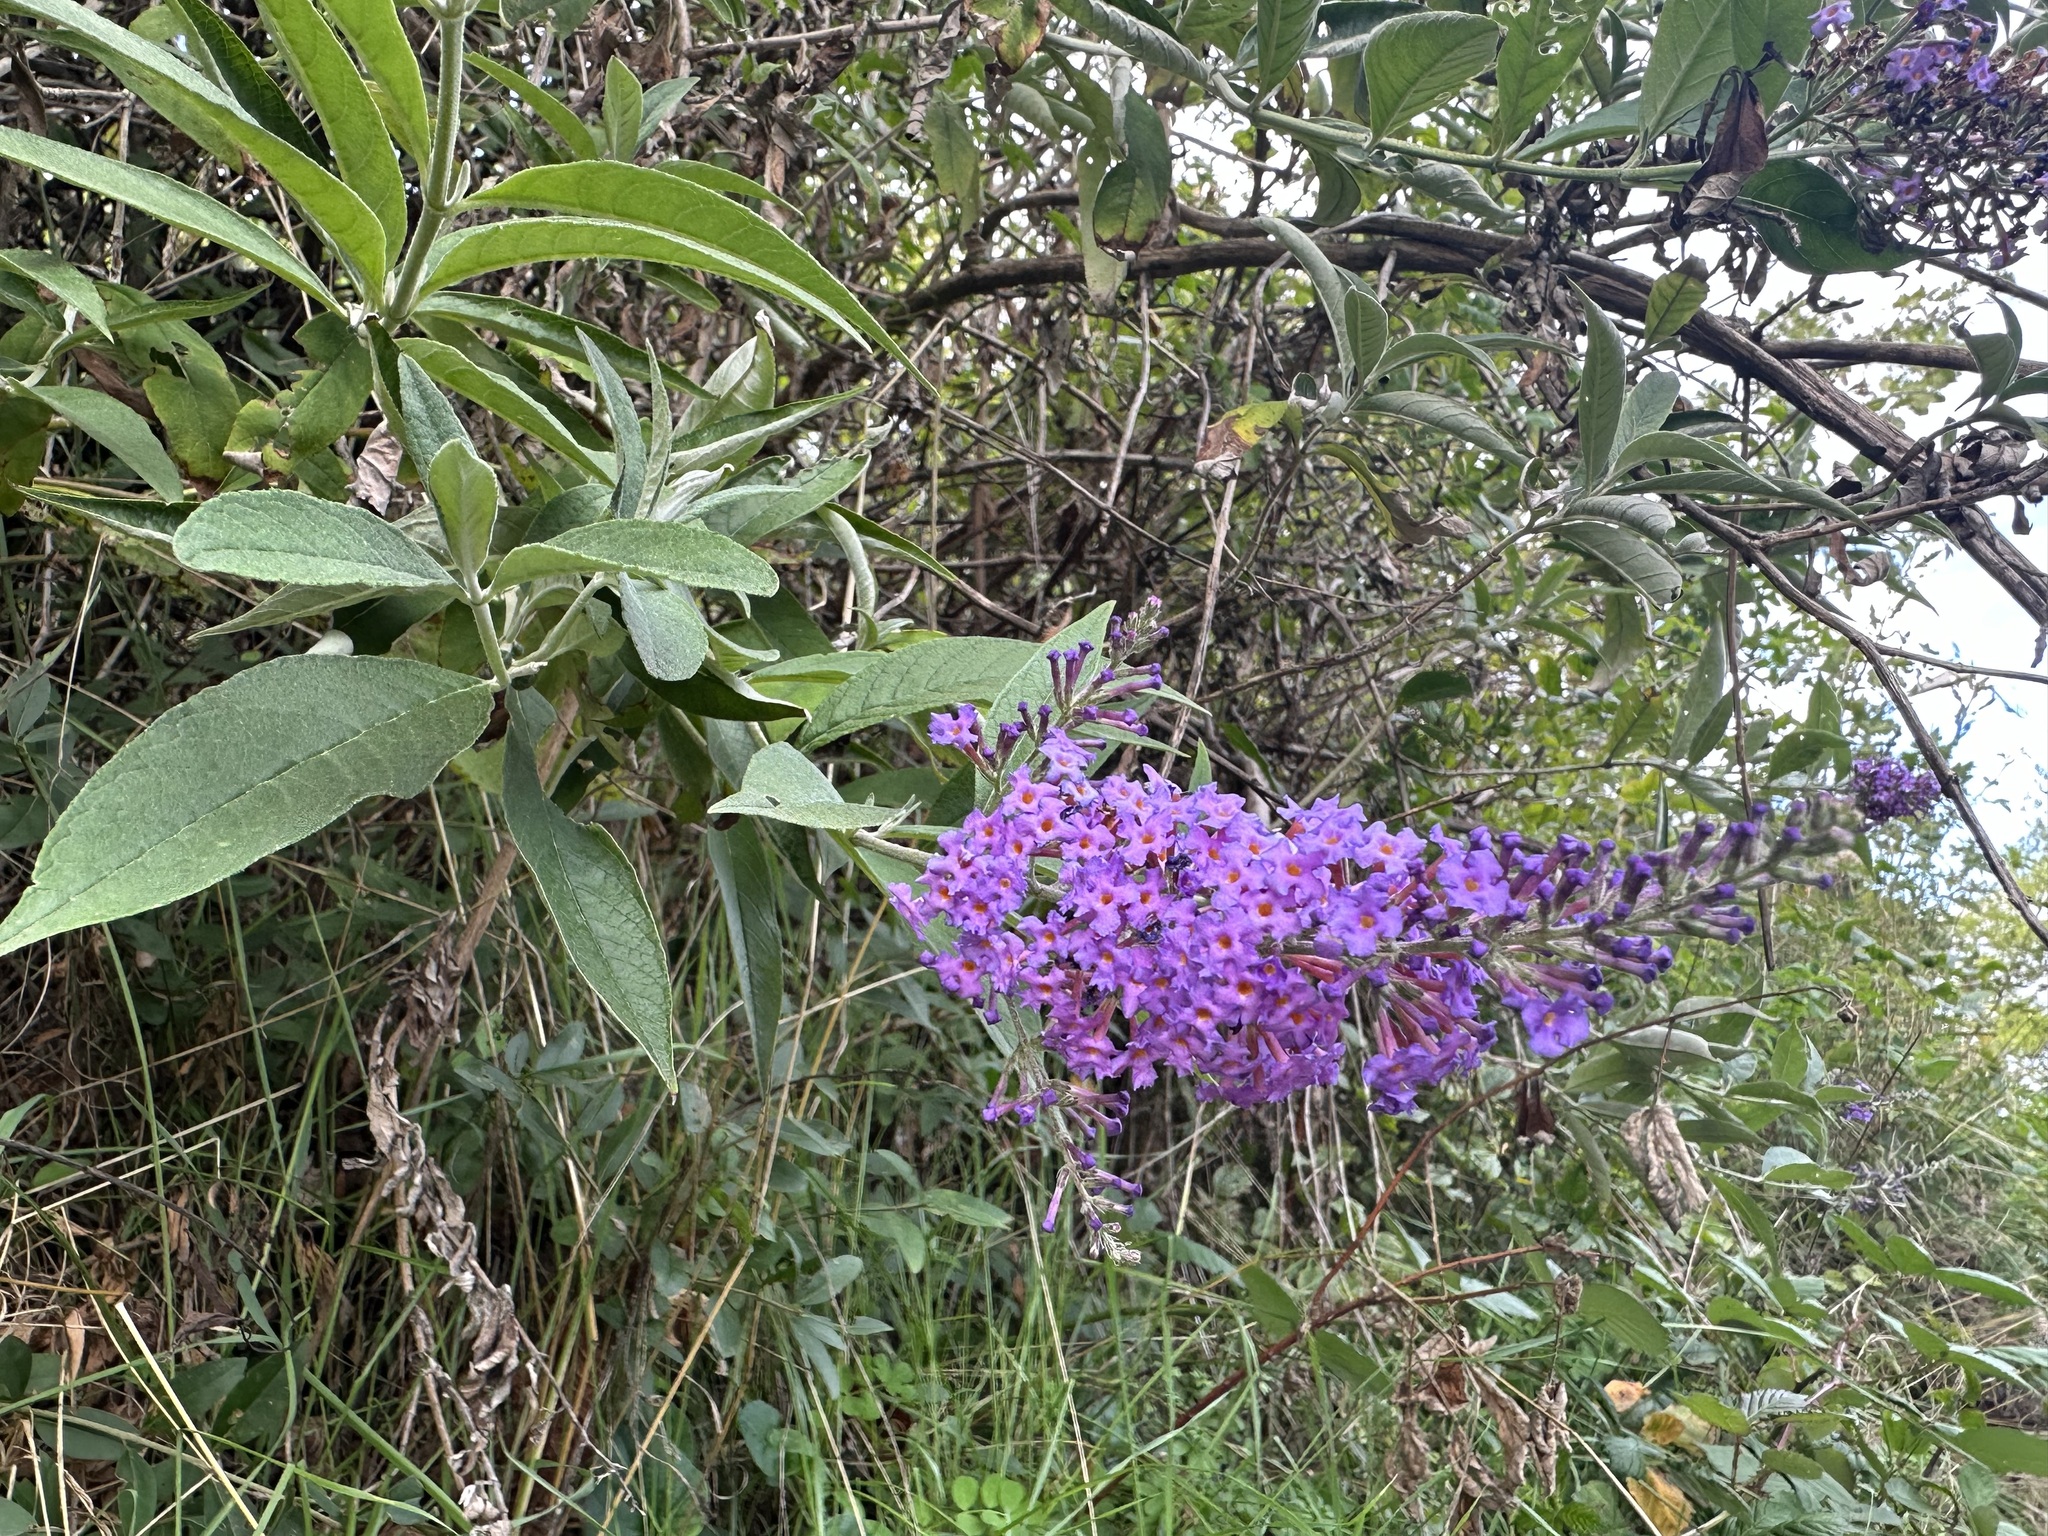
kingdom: Plantae
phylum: Tracheophyta
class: Magnoliopsida
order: Lamiales
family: Scrophulariaceae
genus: Buddleja
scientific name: Buddleja davidii
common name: Butterfly-bush
